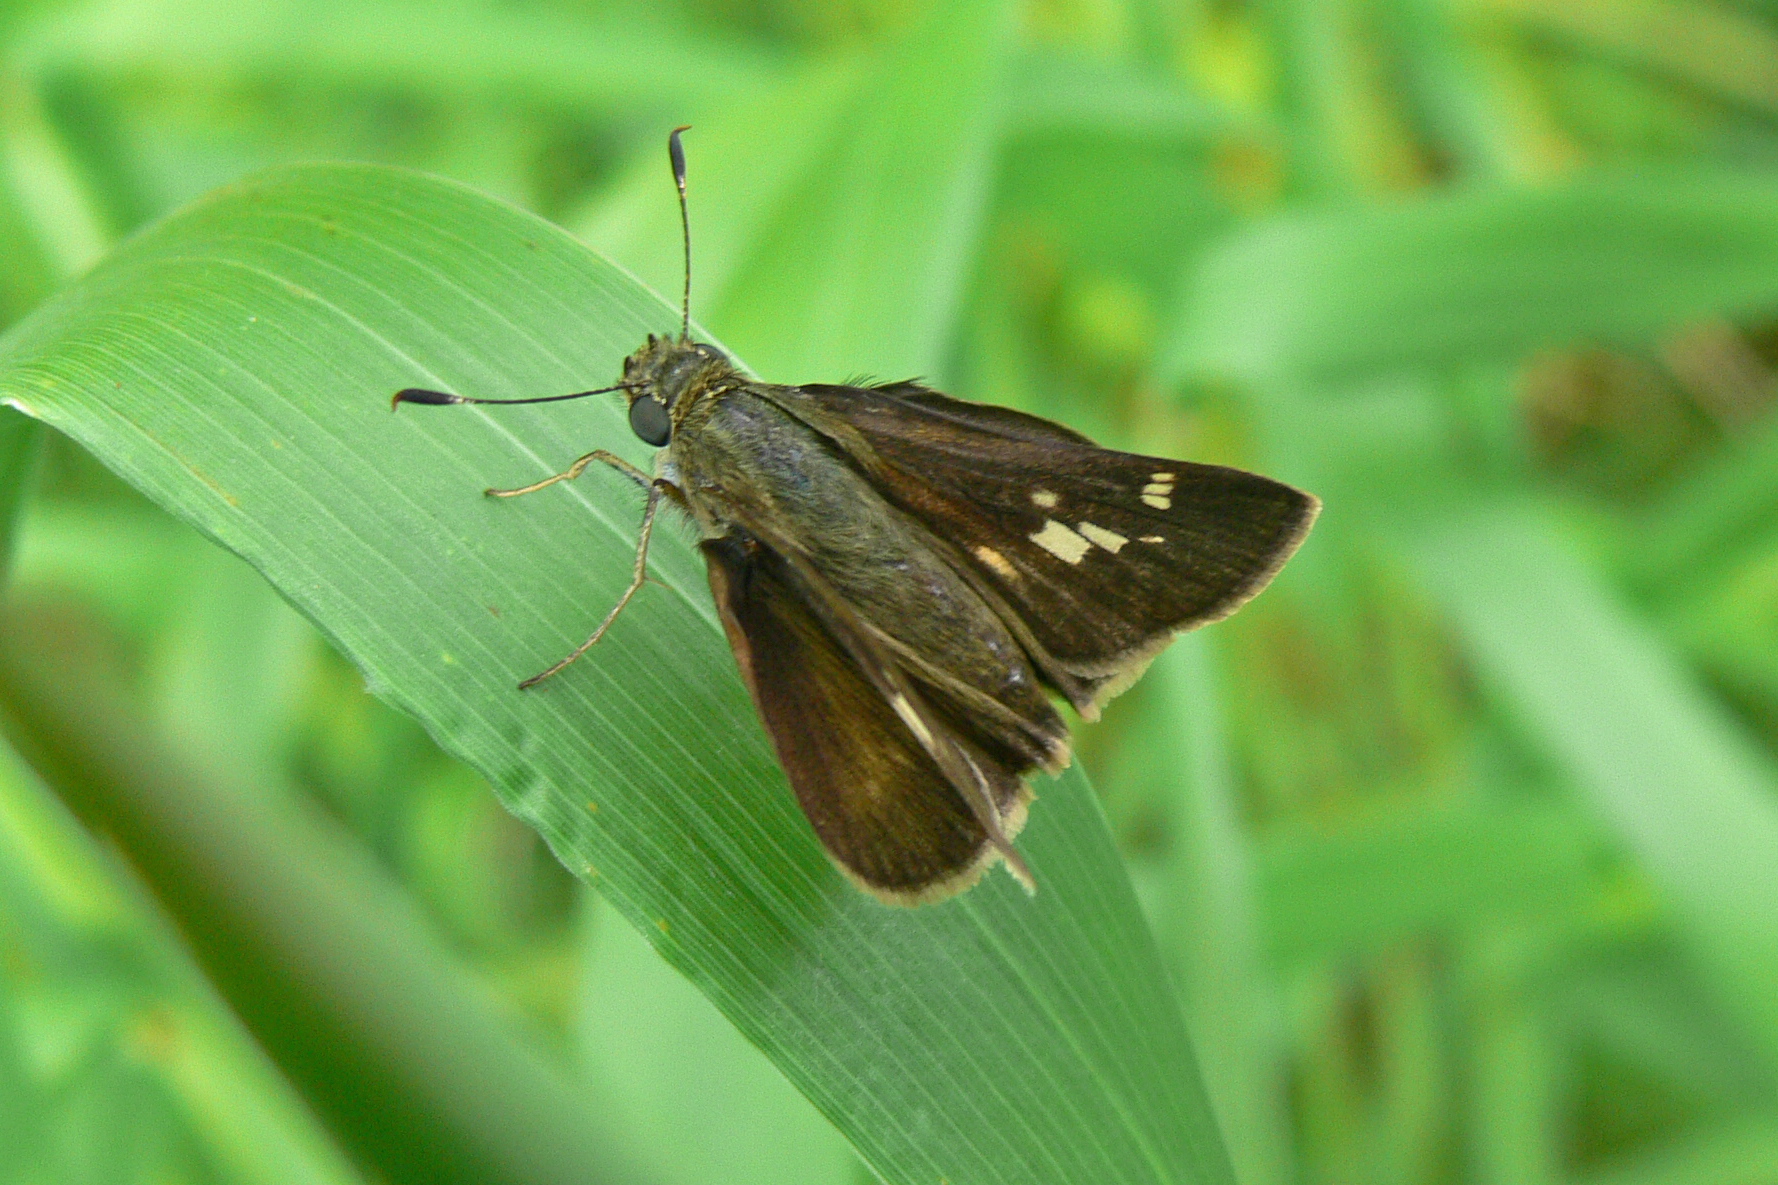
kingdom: Animalia
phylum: Arthropoda
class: Insecta
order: Lepidoptera
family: Hesperiidae
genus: Vernia
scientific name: Vernia verna
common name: Little glassywing
